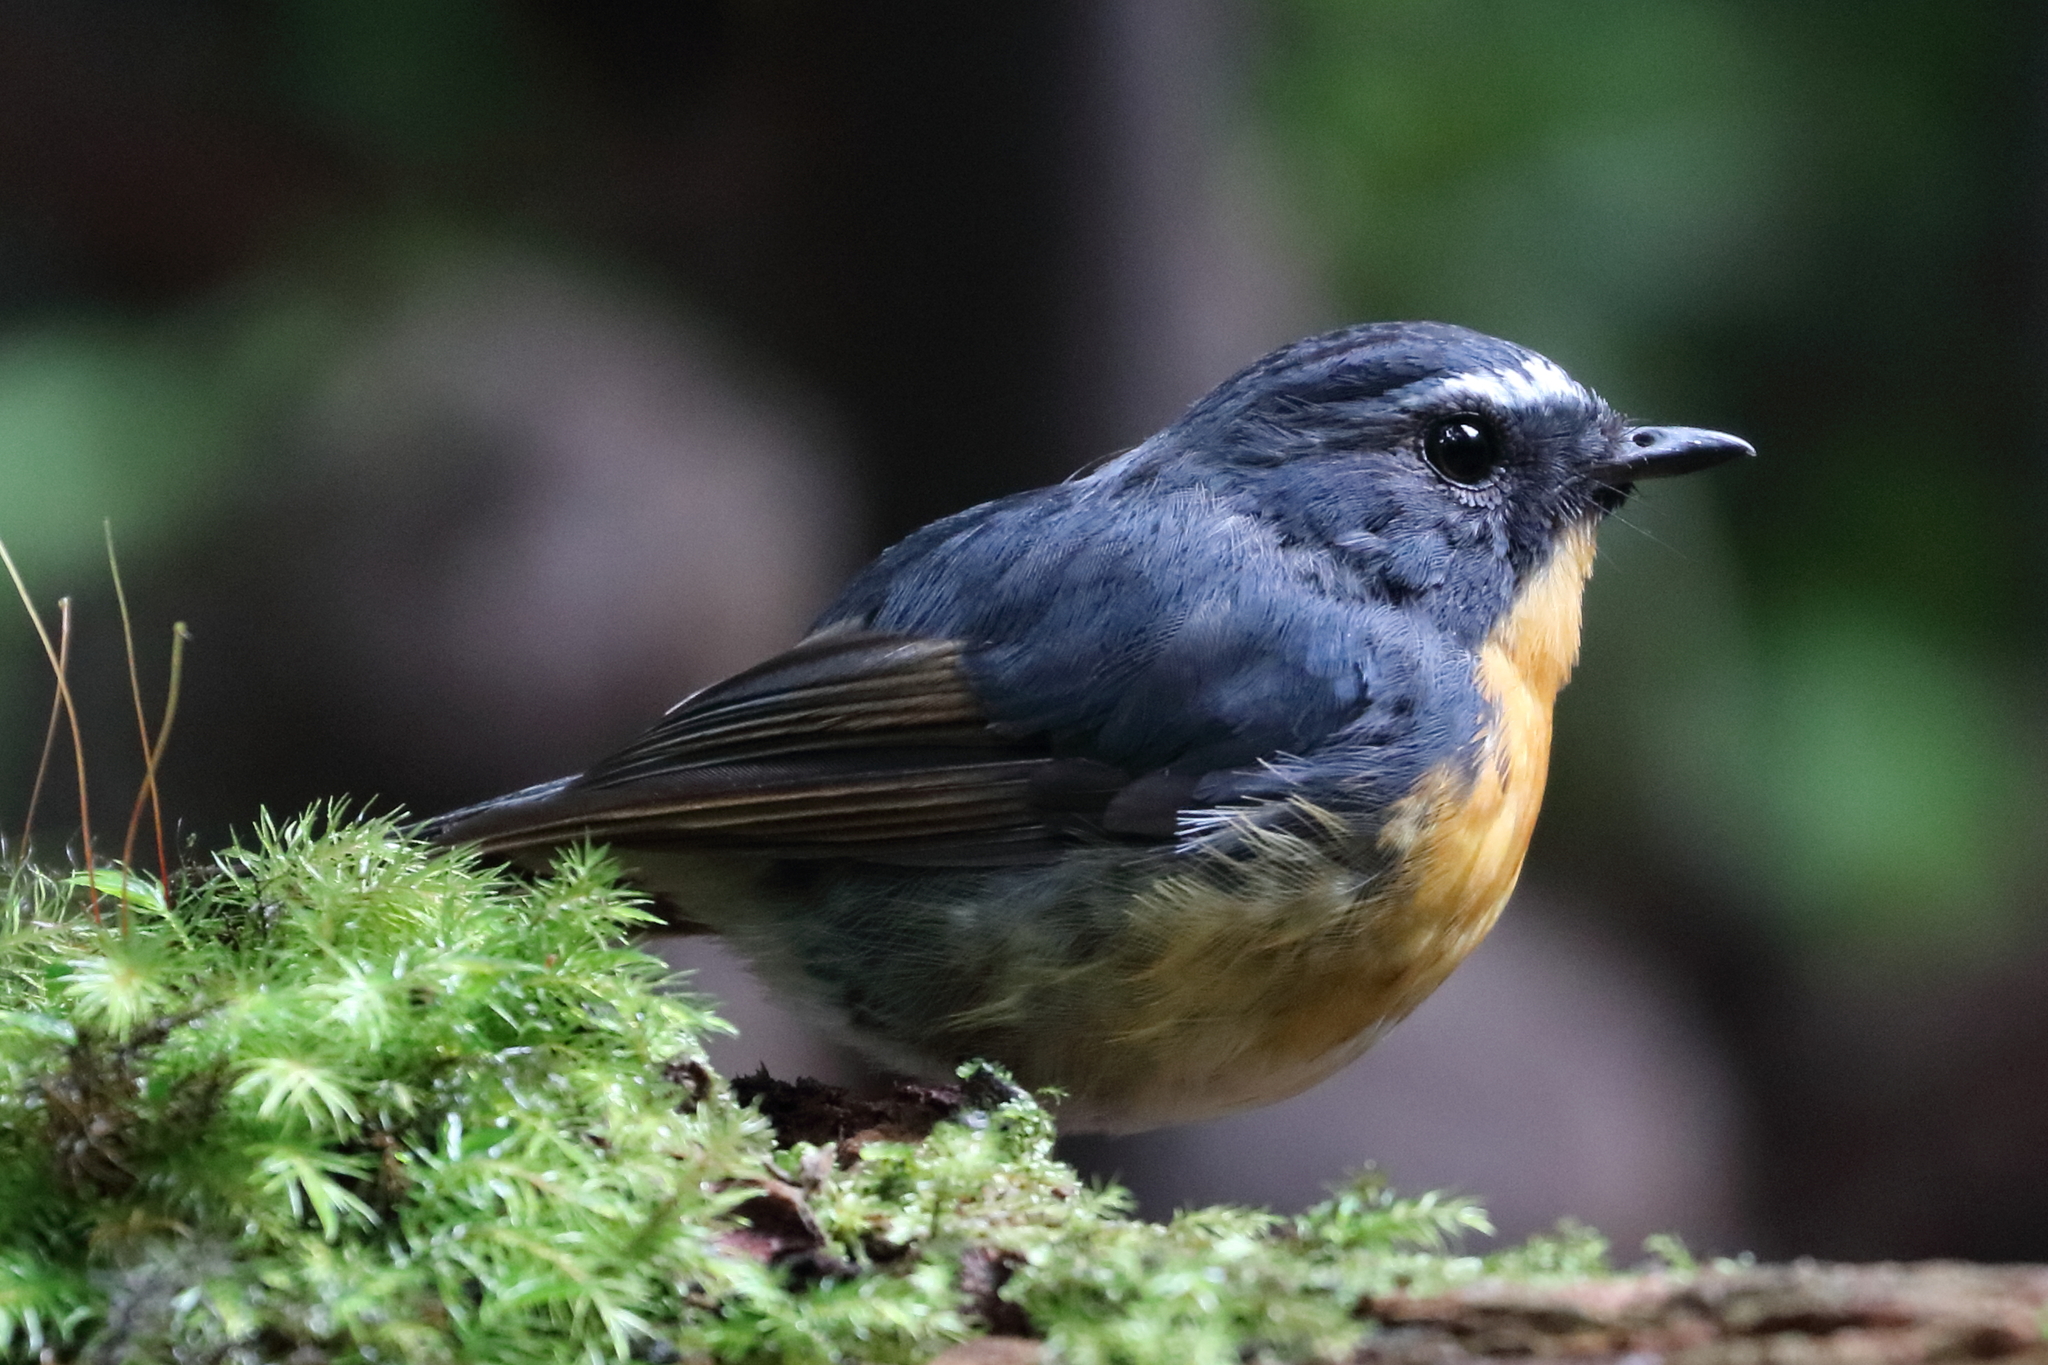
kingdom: Animalia
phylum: Chordata
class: Aves
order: Passeriformes
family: Muscicapidae
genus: Ficedula
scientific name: Ficedula hyperythra
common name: Snowy-browed flycatcher
